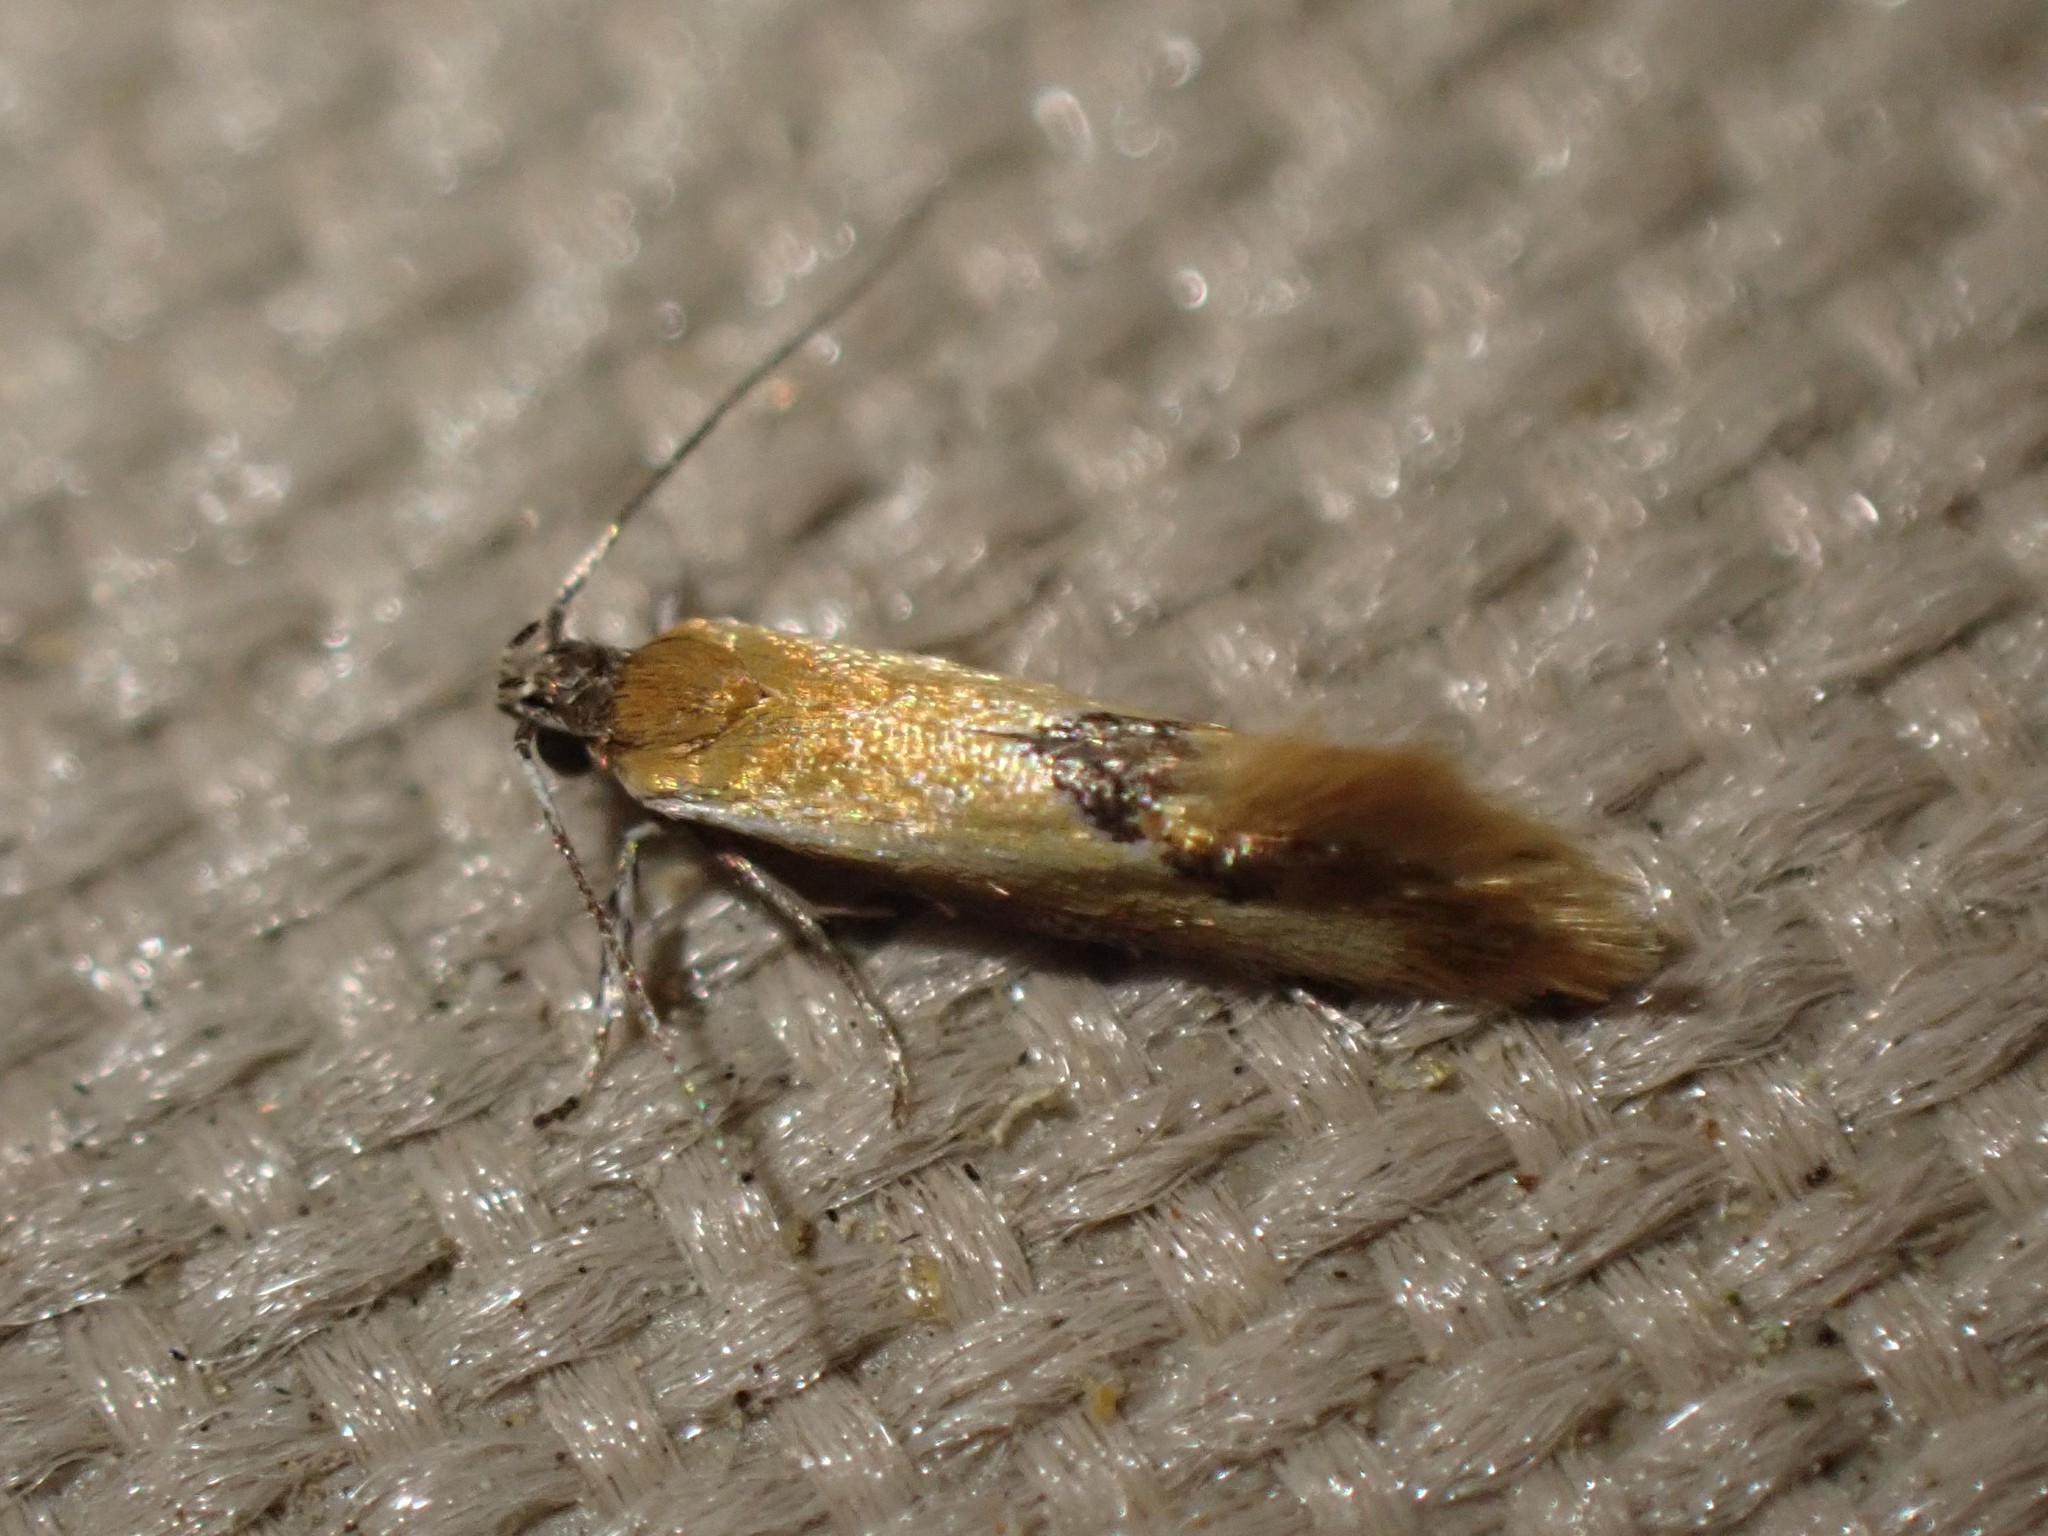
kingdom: Animalia
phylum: Arthropoda
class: Insecta
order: Lepidoptera
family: Oecophoridae
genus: Batia
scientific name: Batia lunaris
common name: Moth
